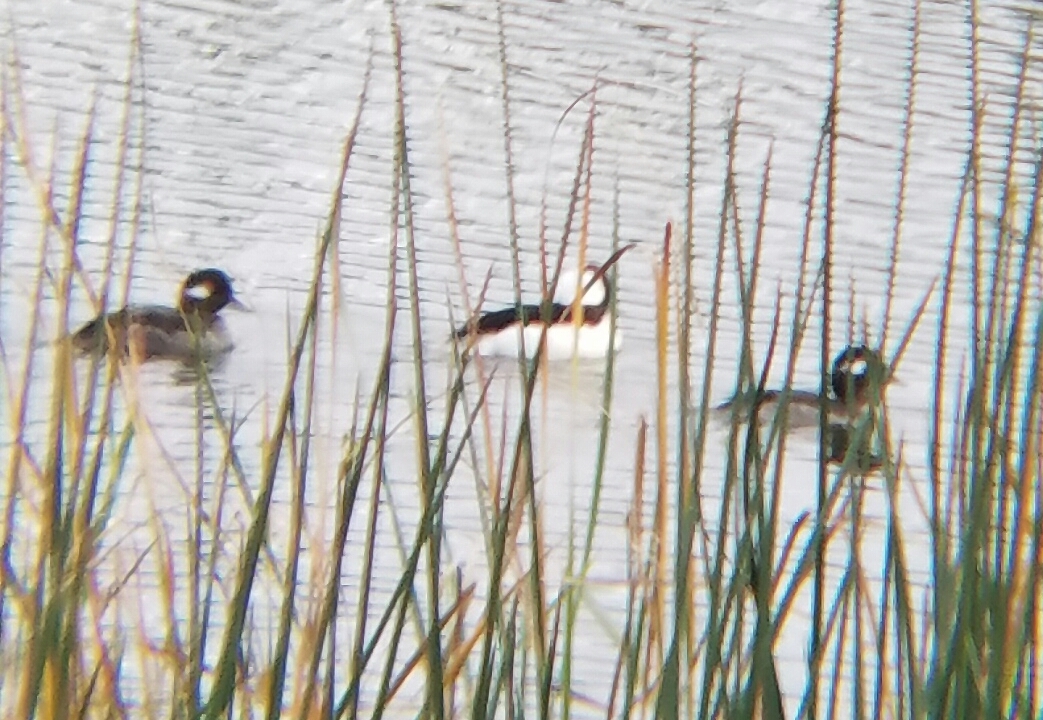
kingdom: Animalia
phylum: Chordata
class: Aves
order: Anseriformes
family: Anatidae
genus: Bucephala
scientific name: Bucephala albeola
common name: Bufflehead
